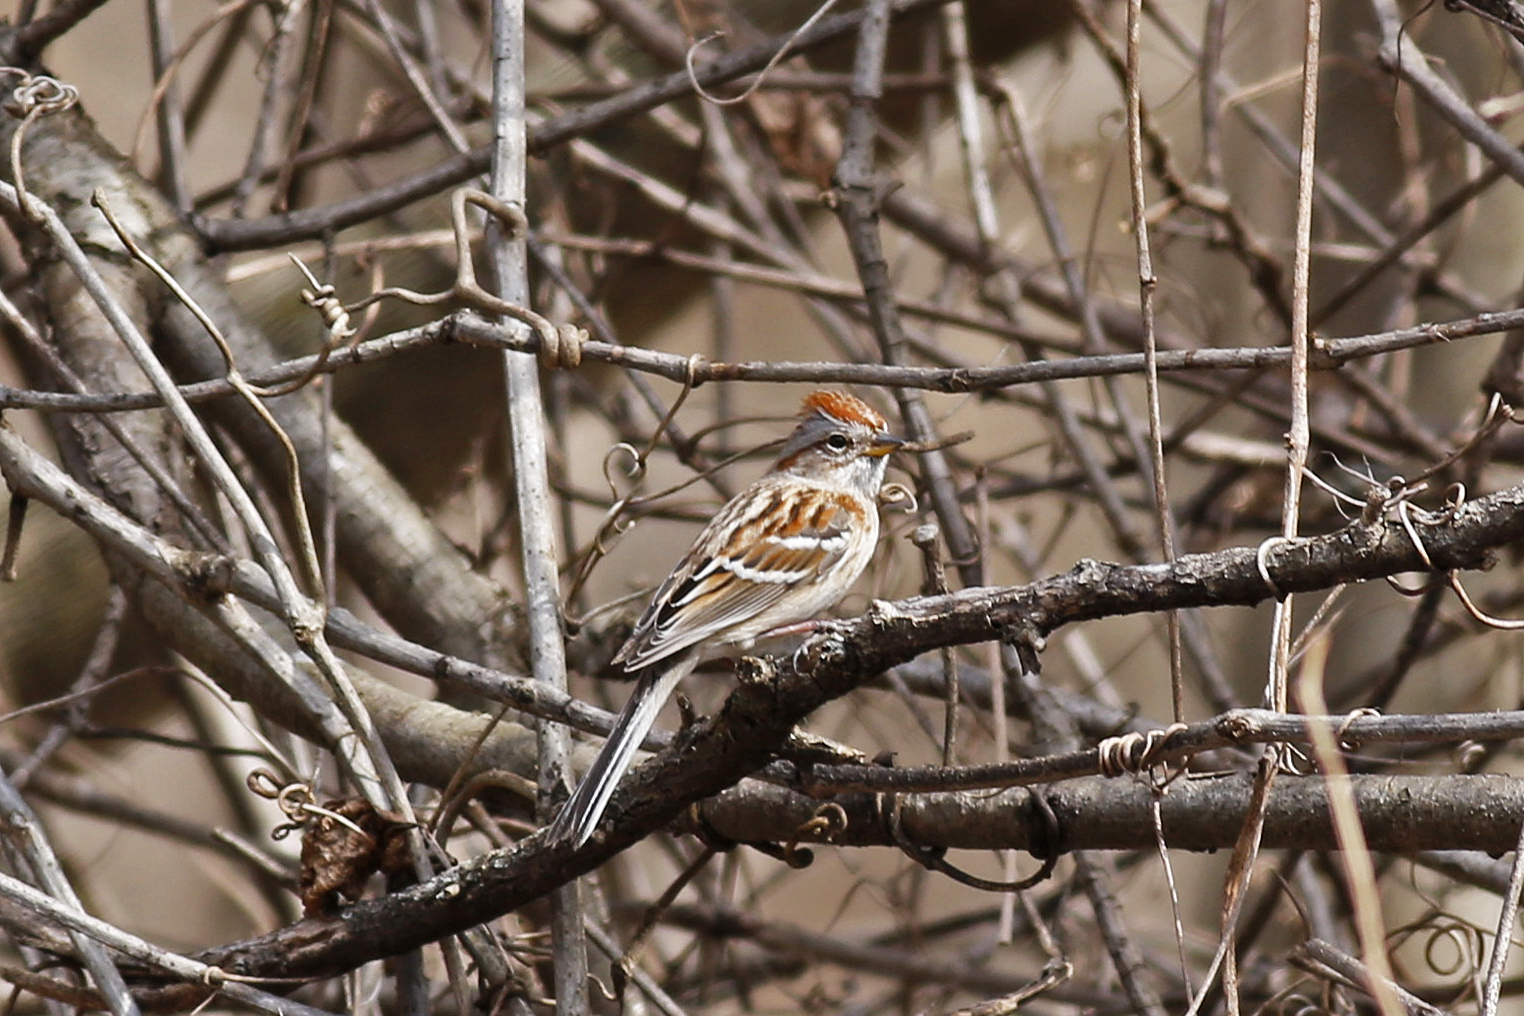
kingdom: Animalia
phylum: Chordata
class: Aves
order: Passeriformes
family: Passerellidae
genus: Spizelloides
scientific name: Spizelloides arborea
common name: American tree sparrow
